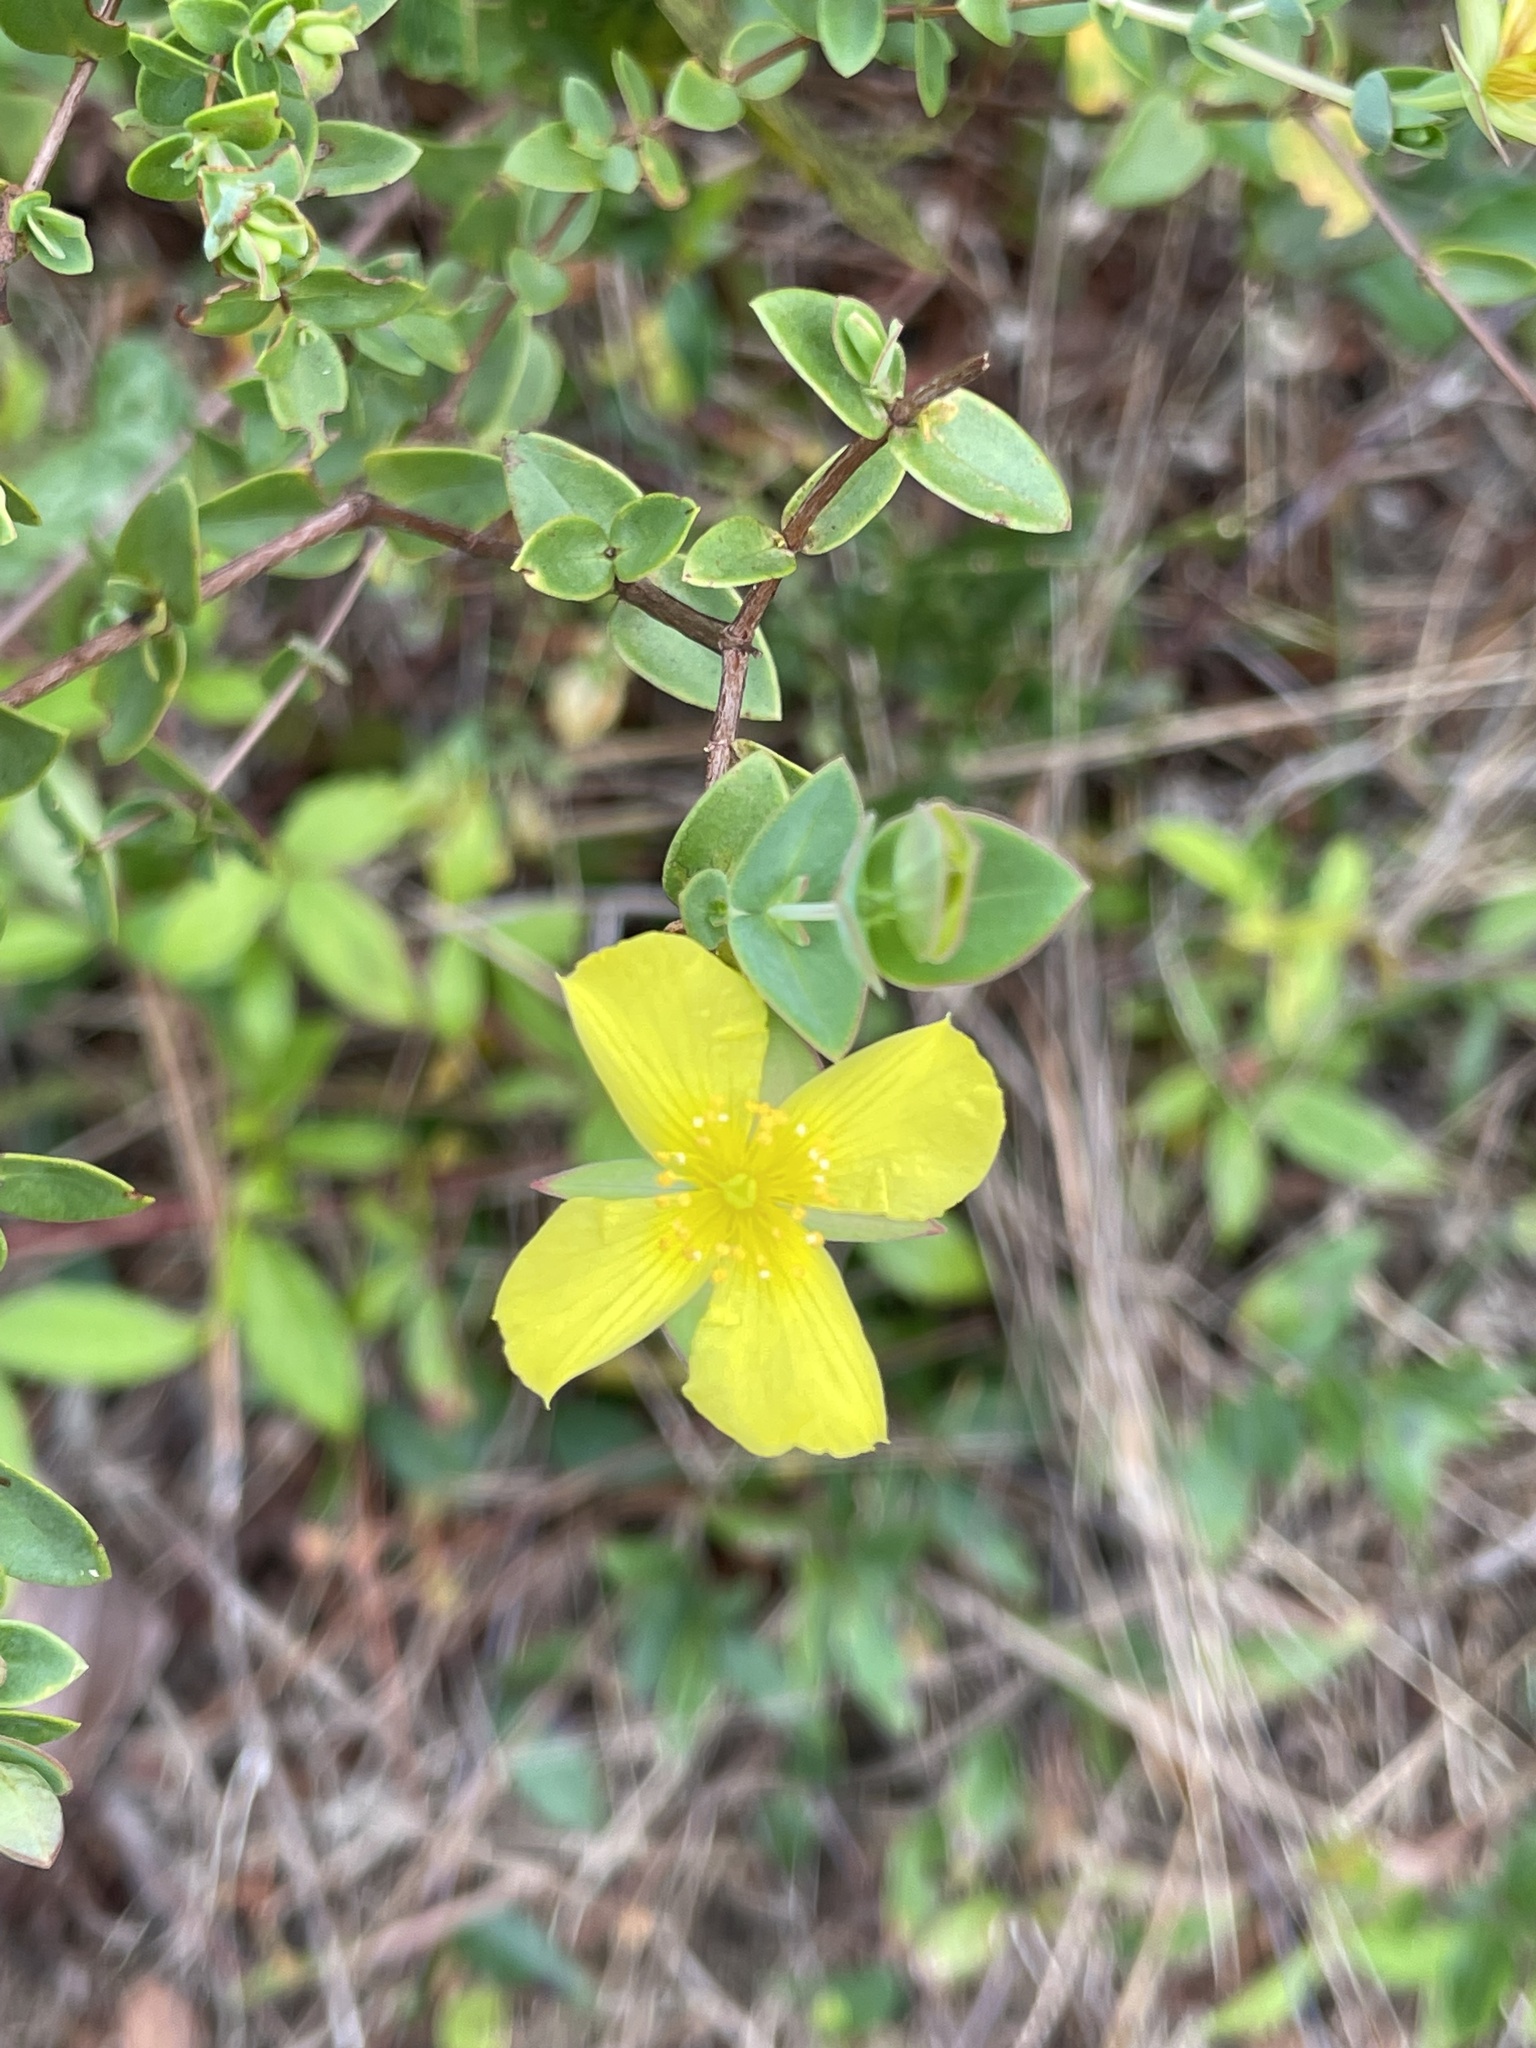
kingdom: Plantae
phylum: Tracheophyta
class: Magnoliopsida
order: Malpighiales
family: Hypericaceae
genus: Hypericum
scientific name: Hypericum tetrapetalum
